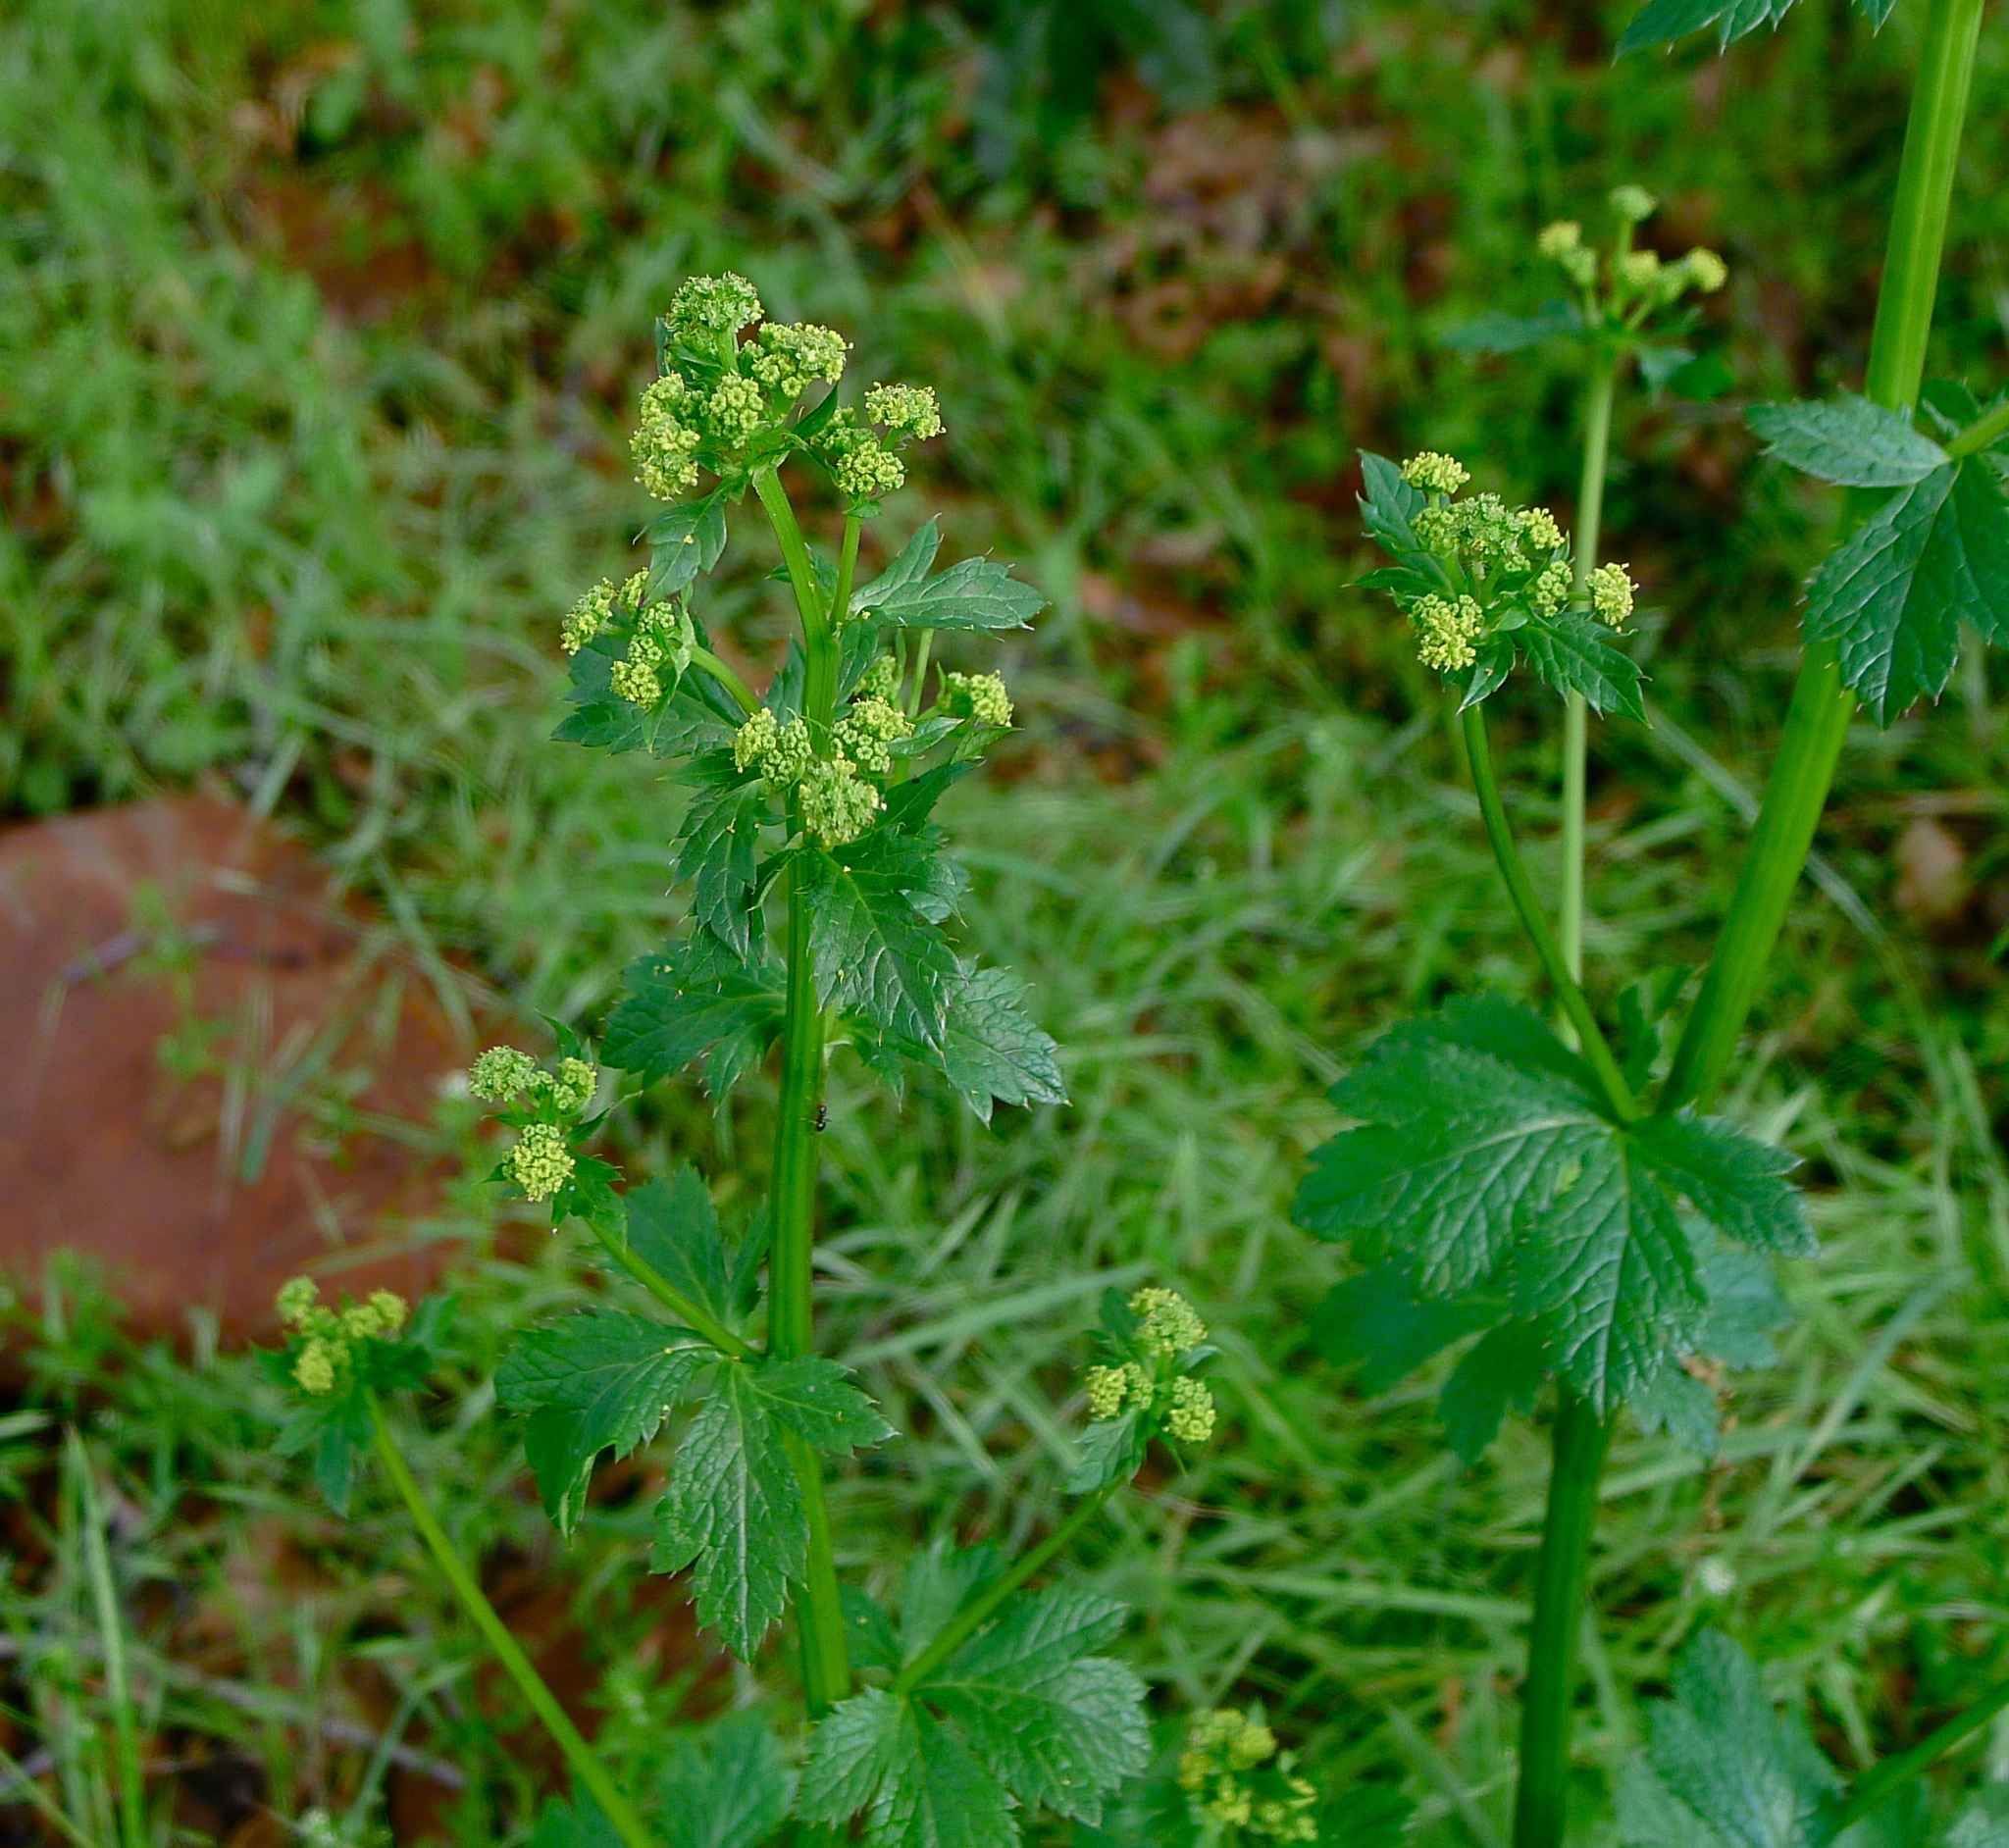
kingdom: Plantae
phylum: Tracheophyta
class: Magnoliopsida
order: Apiales
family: Apiaceae
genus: Sanicula
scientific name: Sanicula crassicaulis
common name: Western snakeroot
